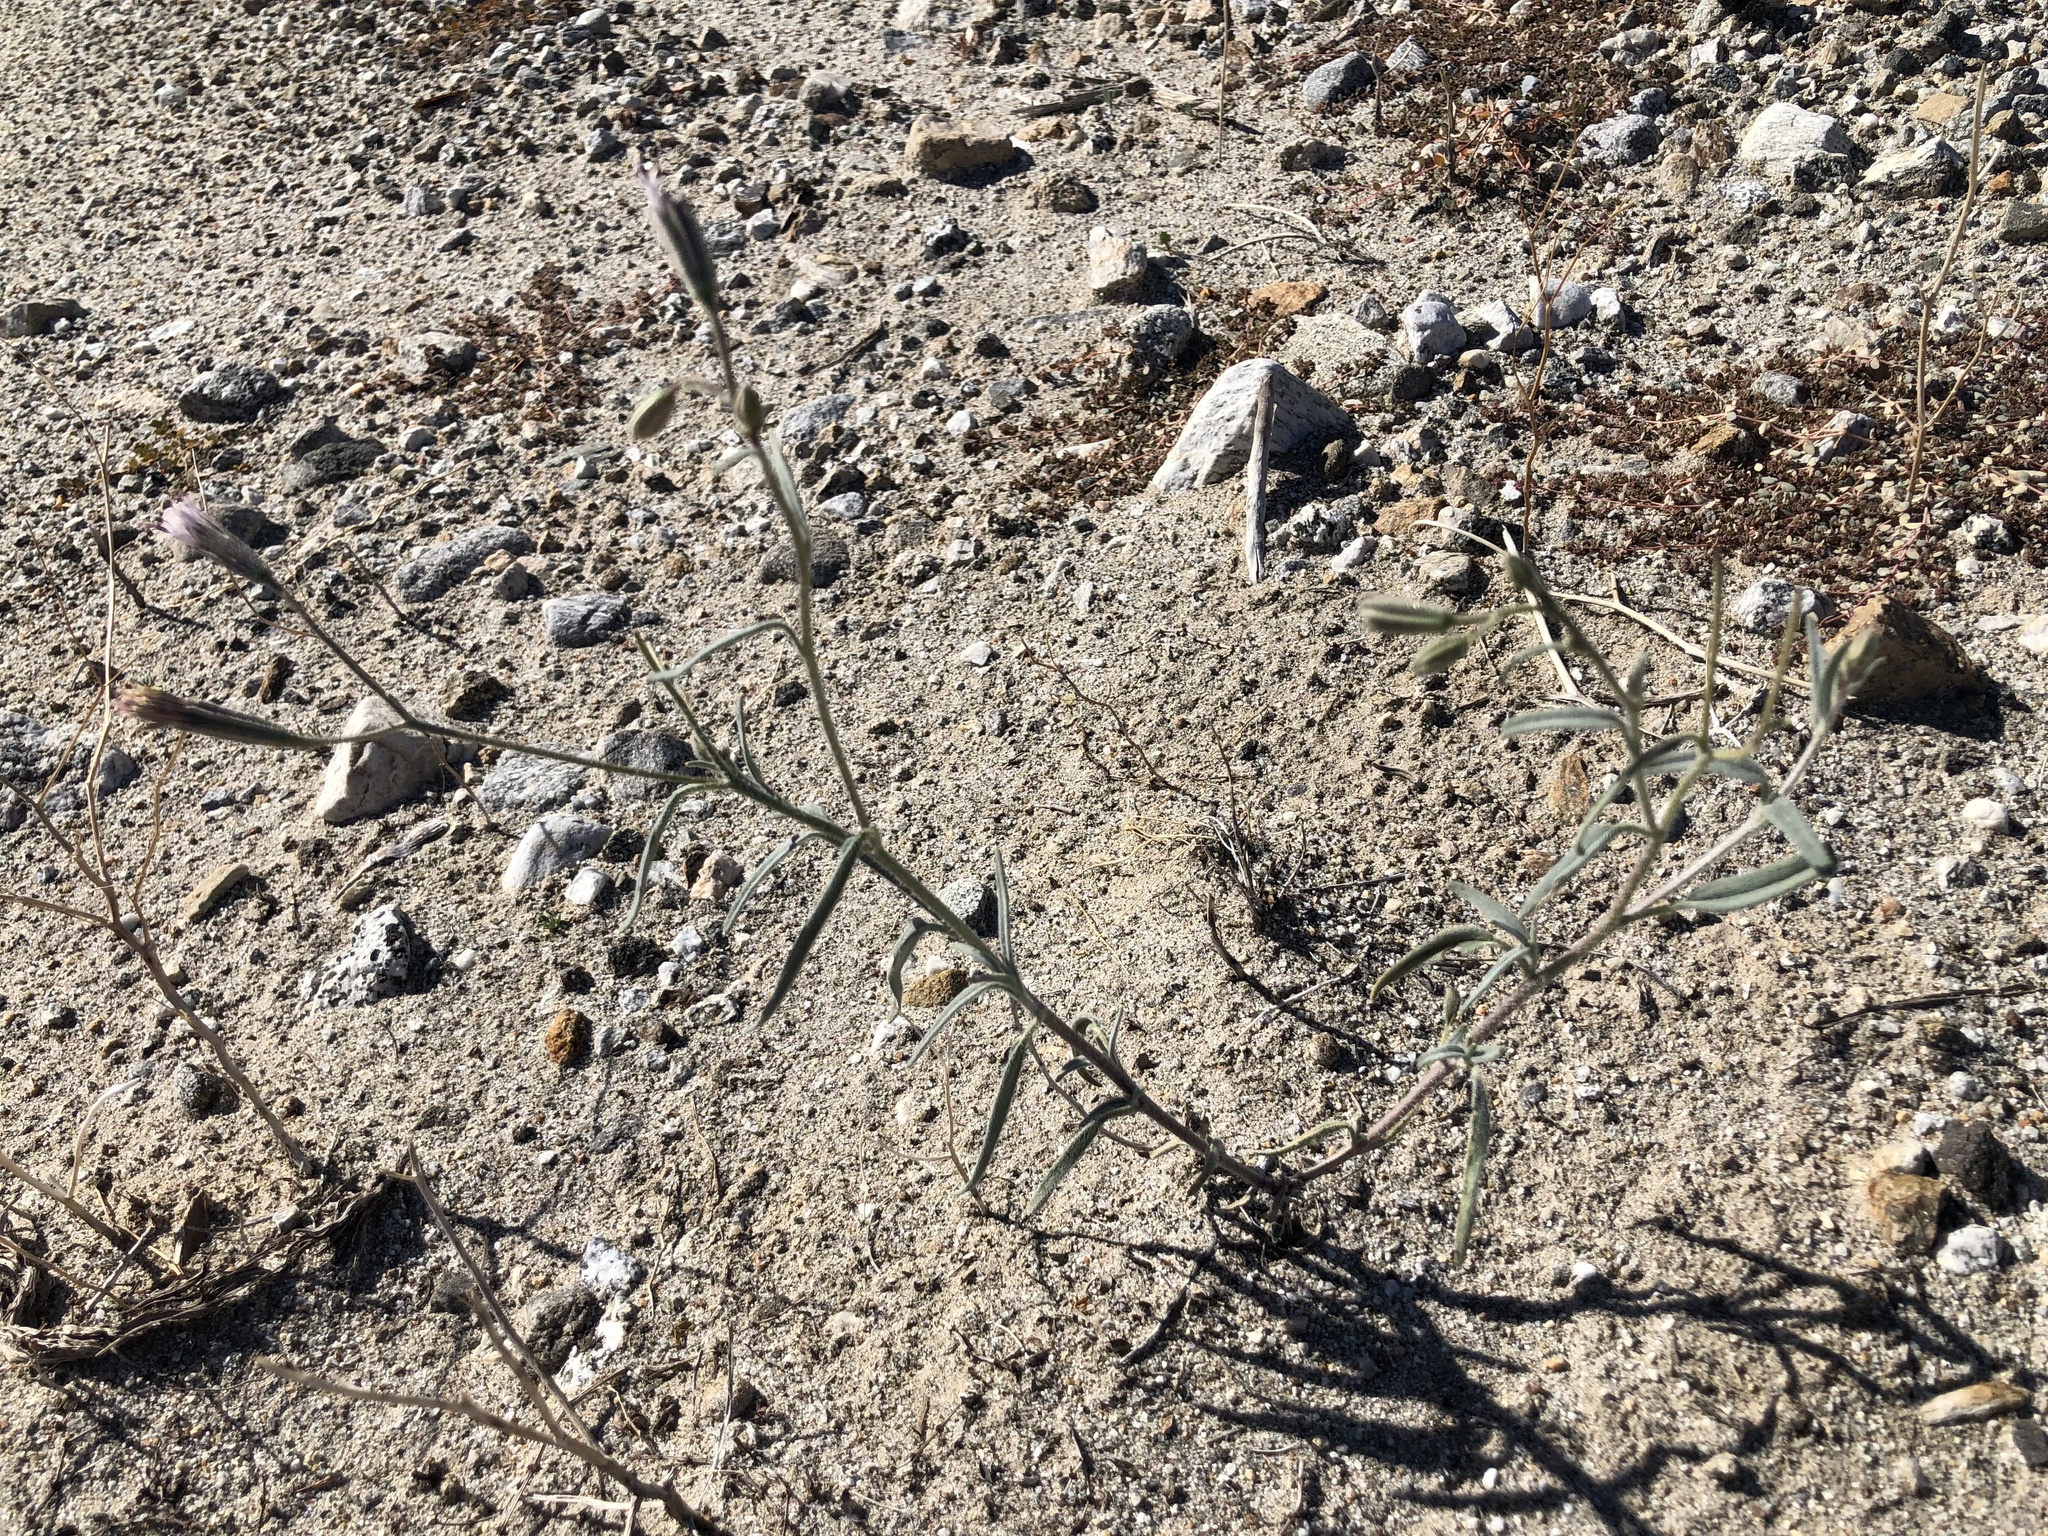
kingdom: Plantae
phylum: Tracheophyta
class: Magnoliopsida
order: Asterales
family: Asteraceae
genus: Palafoxia
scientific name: Palafoxia arida
